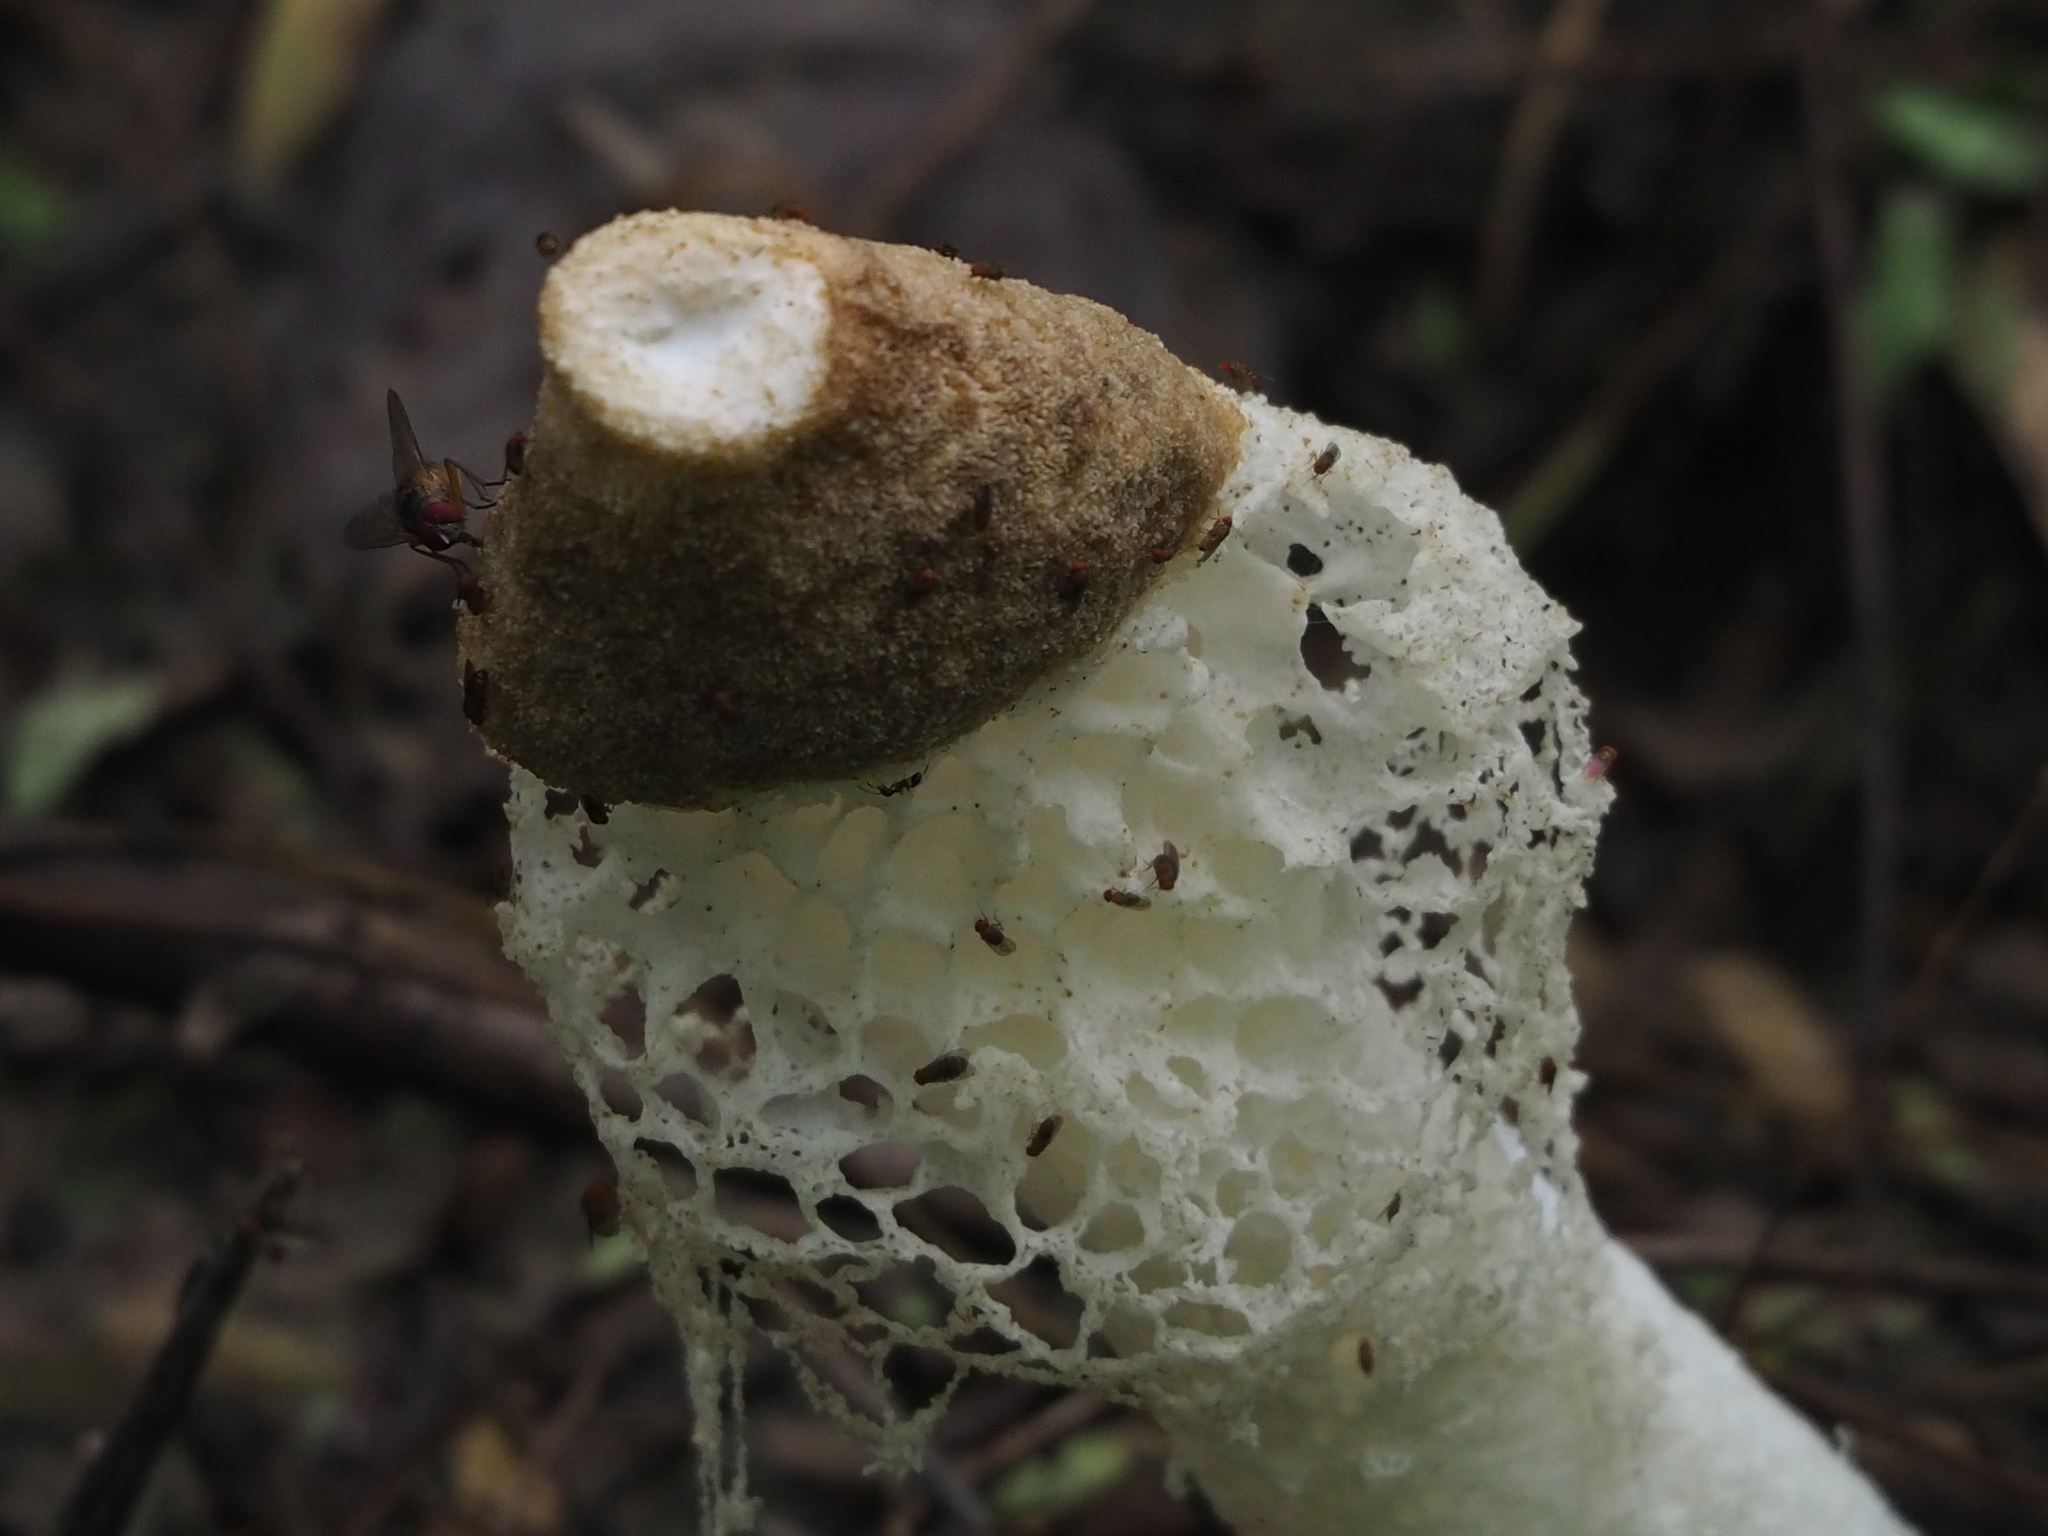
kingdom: Fungi
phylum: Basidiomycota
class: Agaricomycetes
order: Phallales
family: Phallaceae
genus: Phallus
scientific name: Phallus atrovolvatus
